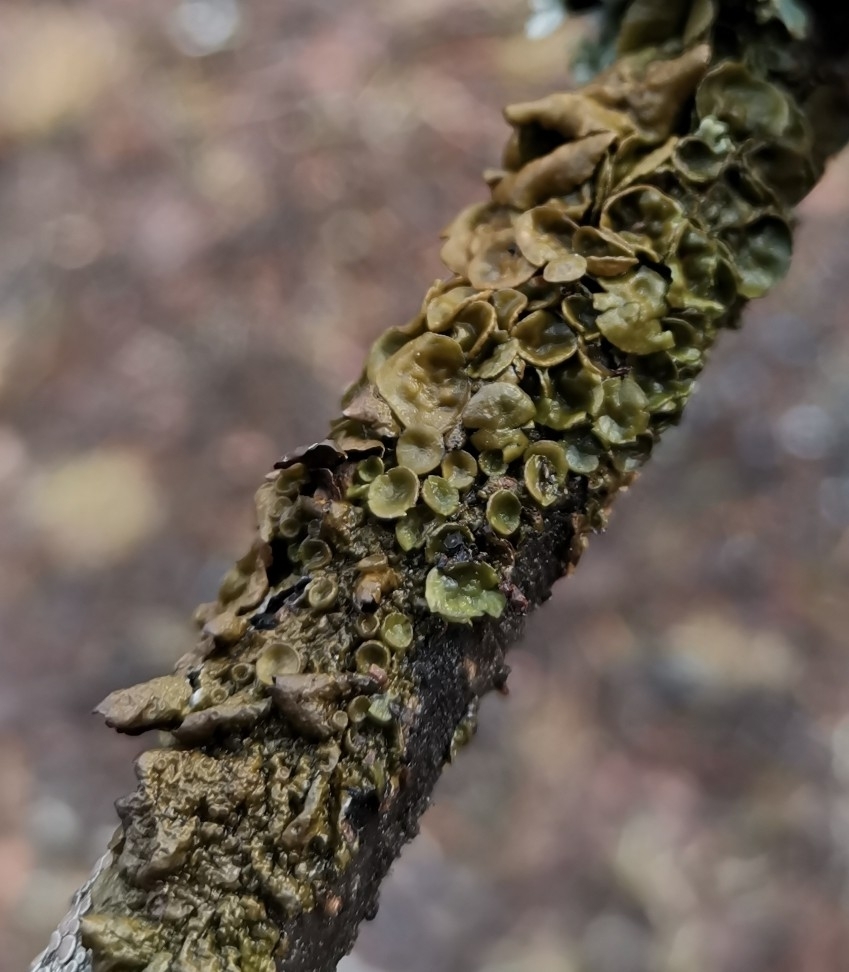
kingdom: Fungi
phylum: Ascomycota
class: Lecanoromycetes
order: Lecanorales
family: Parmeliaceae
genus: Melanohalea
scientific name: Melanohalea olivacea
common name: Spotted camouflage lichen
